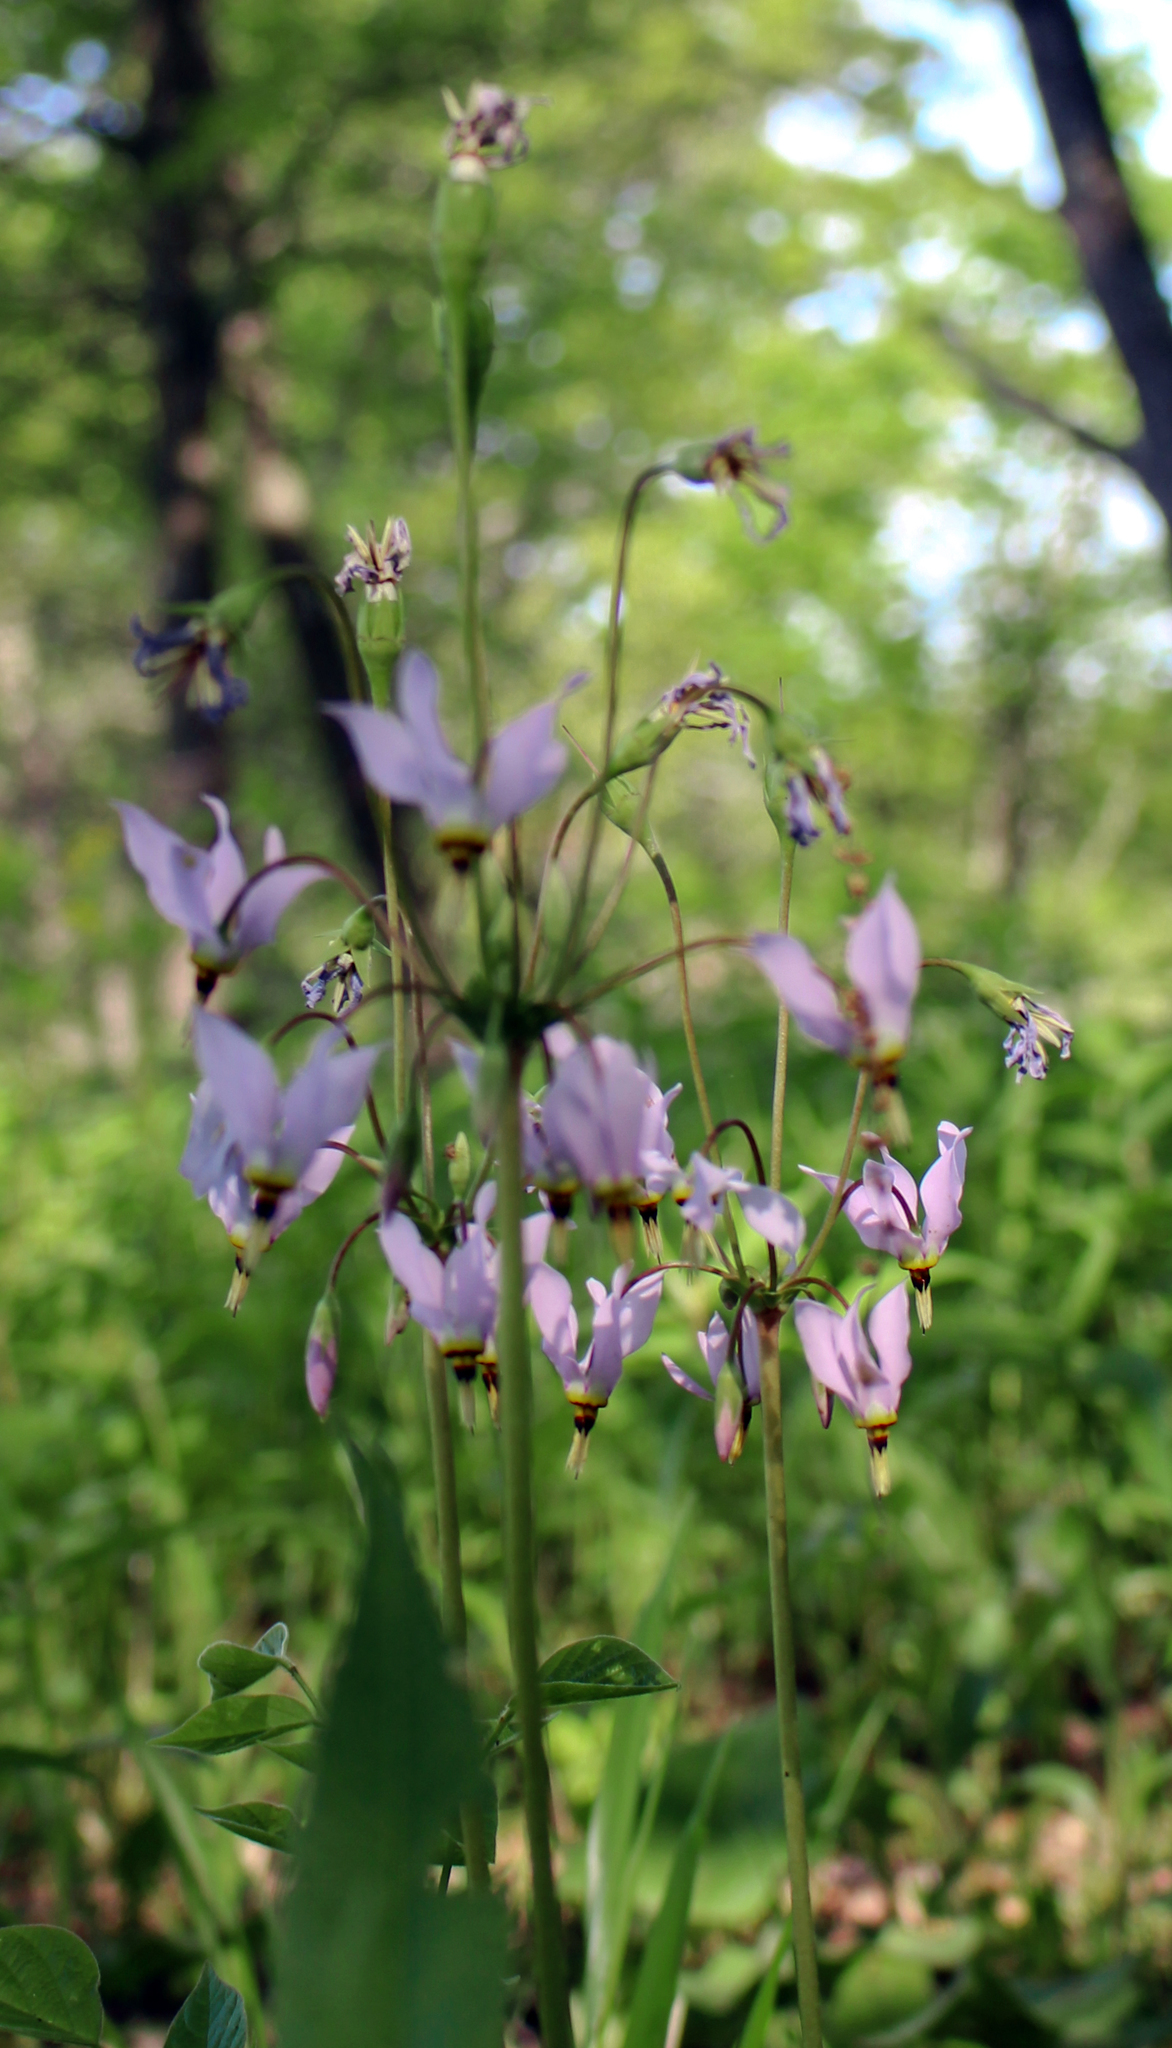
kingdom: Plantae
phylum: Tracheophyta
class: Magnoliopsida
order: Ericales
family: Primulaceae
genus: Dodecatheon
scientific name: Dodecatheon meadia
